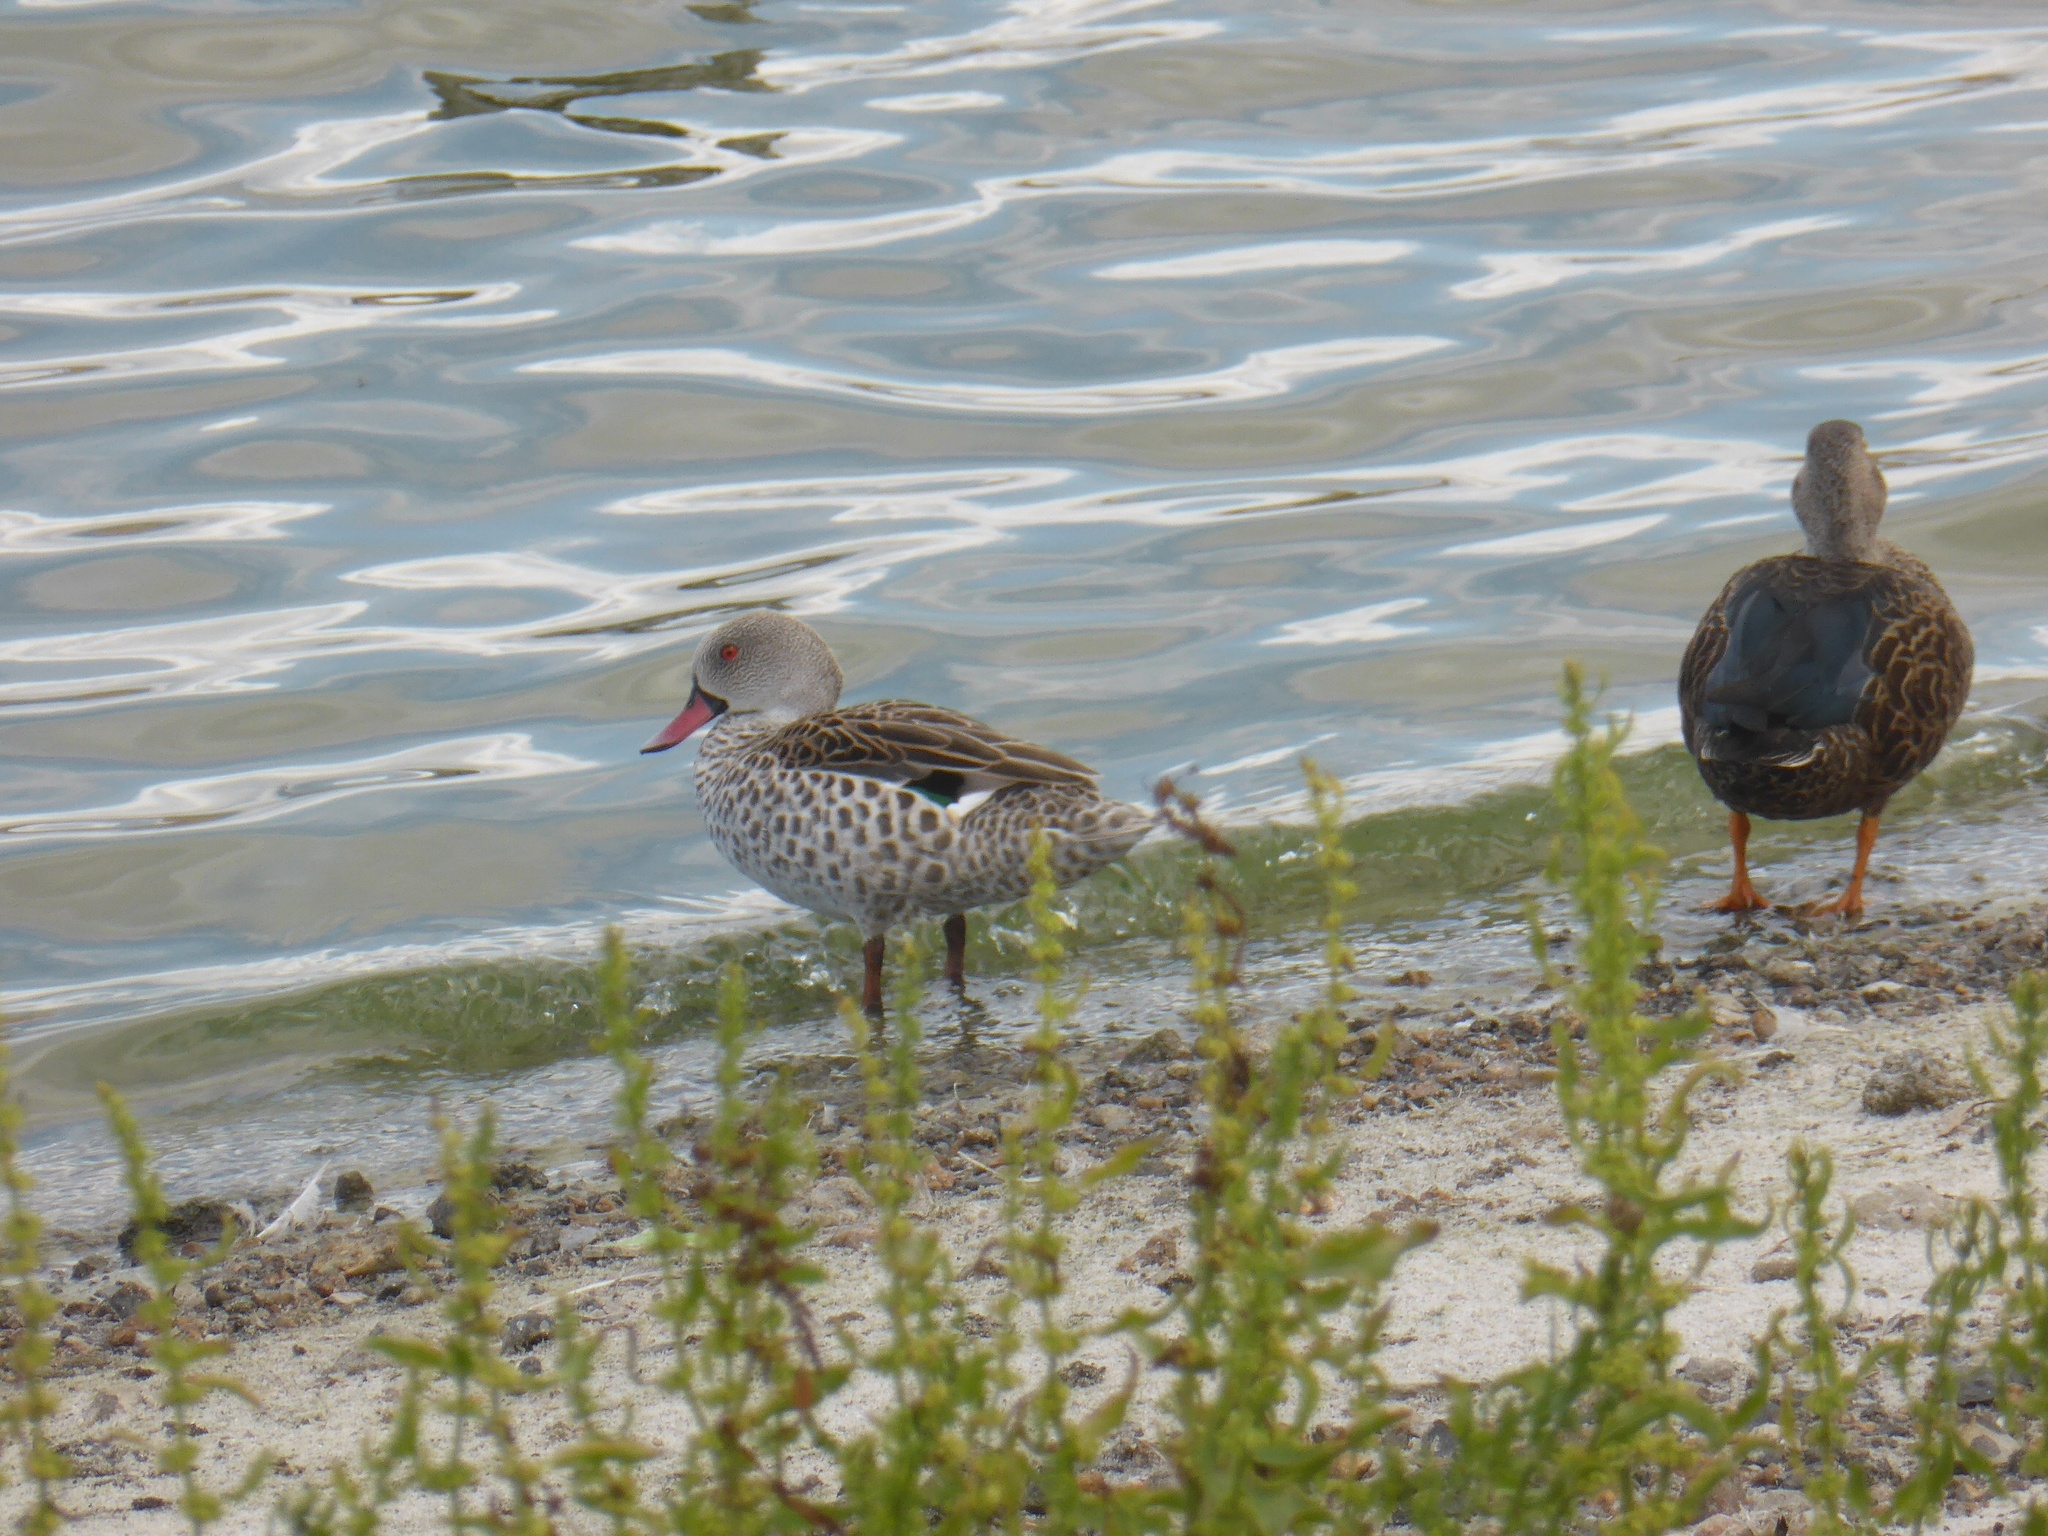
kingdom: Animalia
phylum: Chordata
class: Aves
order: Anseriformes
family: Anatidae
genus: Anas
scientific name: Anas capensis
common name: Cape teal
